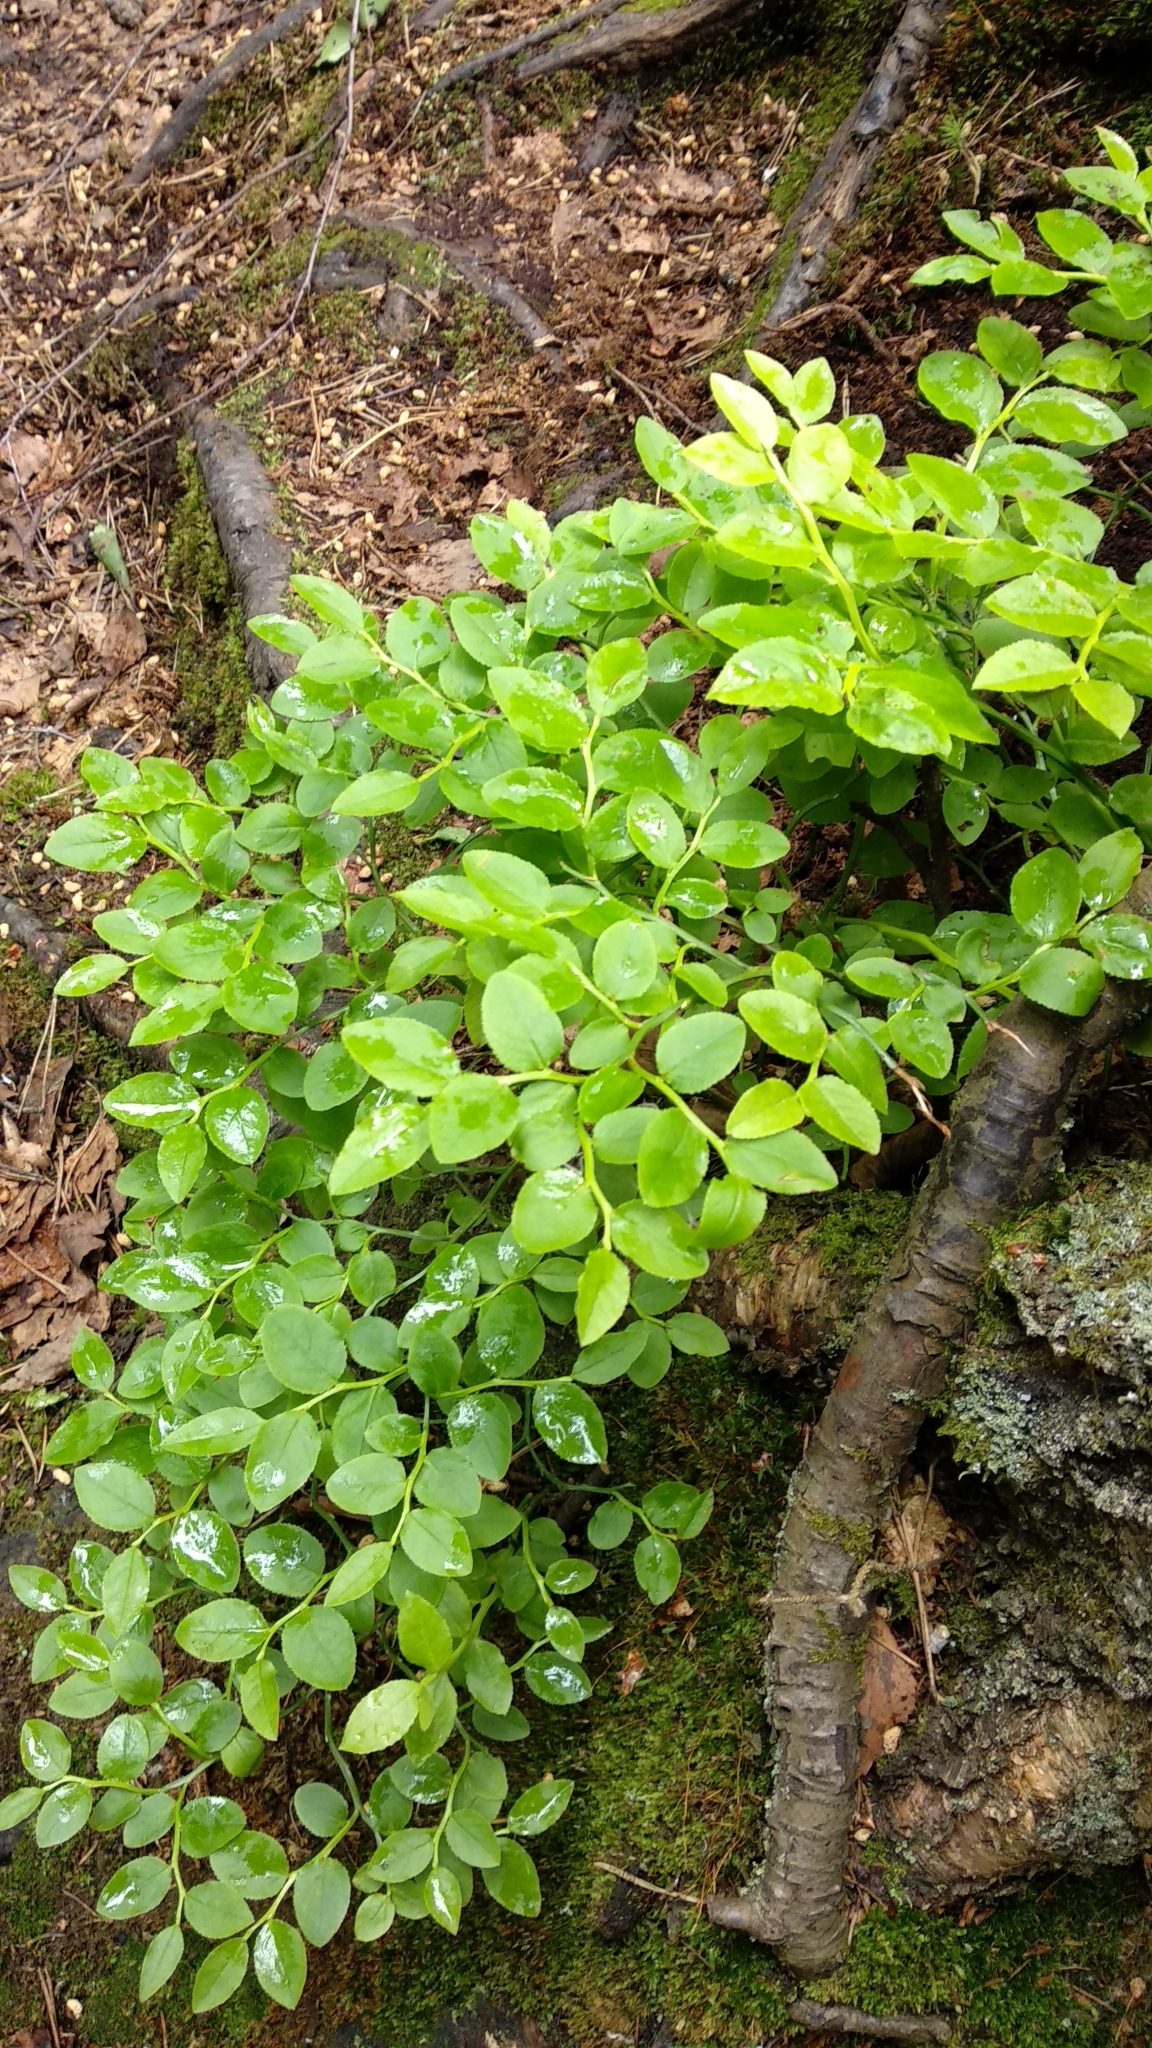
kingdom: Plantae
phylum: Tracheophyta
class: Magnoliopsida
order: Ericales
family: Ericaceae
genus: Vaccinium
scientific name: Vaccinium myrtillus
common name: Bilberry
